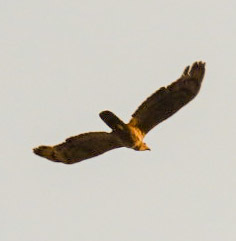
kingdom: Animalia
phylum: Chordata
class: Aves
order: Accipitriformes
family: Accipitridae
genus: Pernis
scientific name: Pernis ptilorhynchus
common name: Crested honey buzzard
